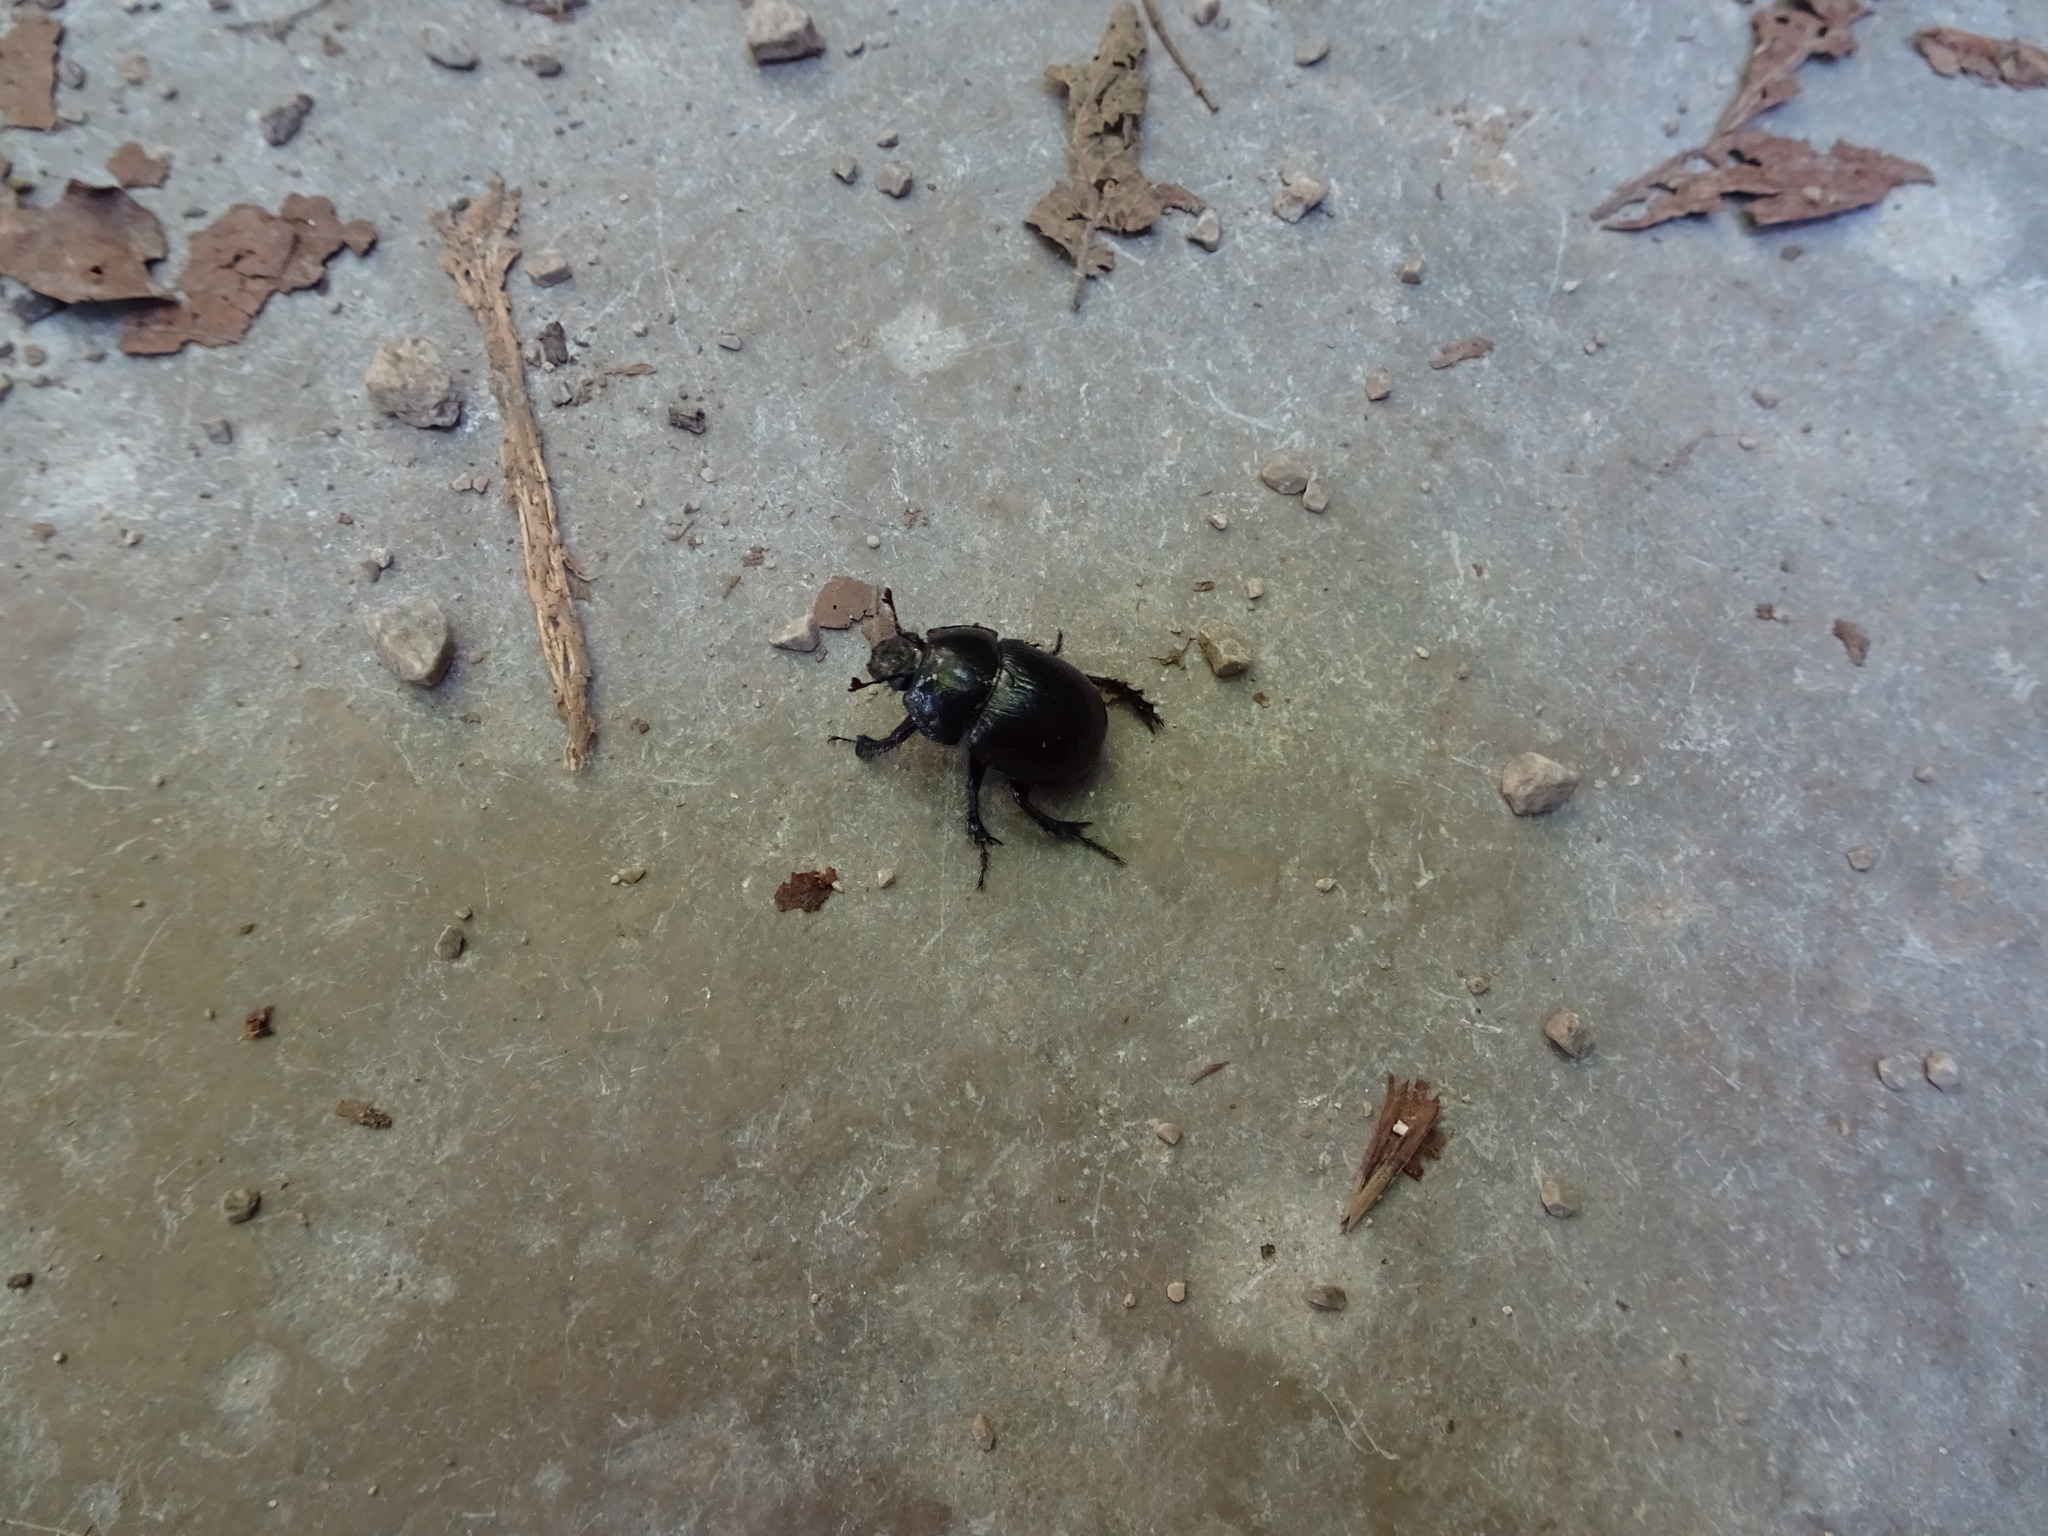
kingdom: Animalia
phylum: Arthropoda
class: Insecta
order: Coleoptera
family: Geotrupidae
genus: Anoplotrupes
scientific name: Anoplotrupes stercorosus
